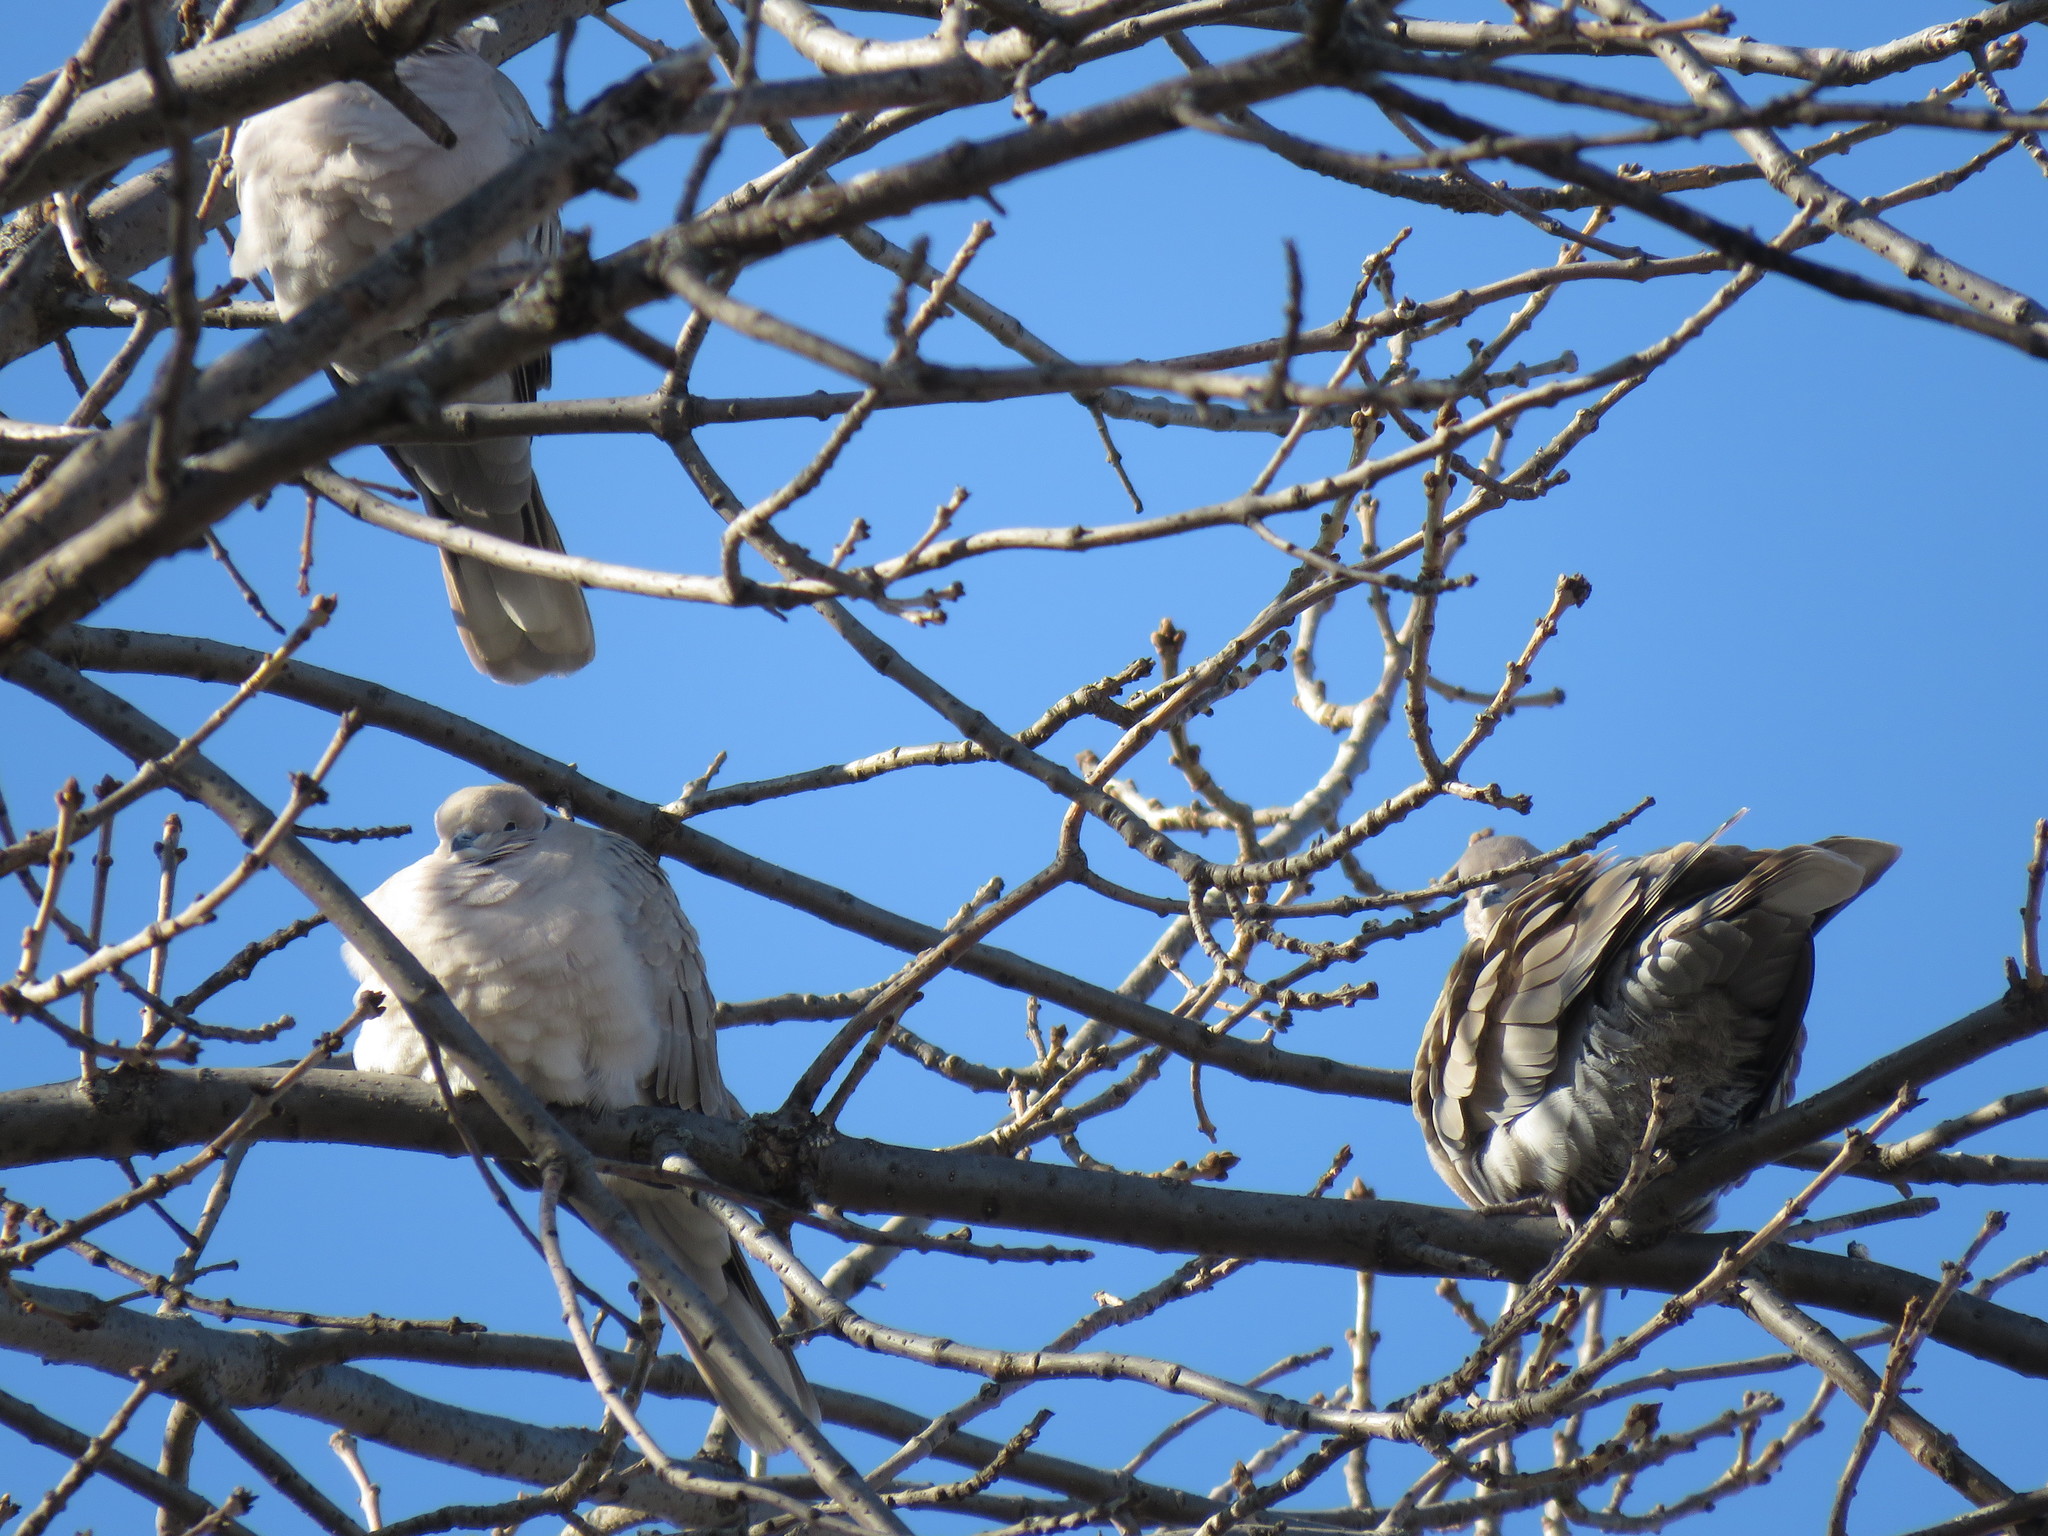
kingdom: Animalia
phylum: Chordata
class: Aves
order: Columbiformes
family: Columbidae
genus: Streptopelia
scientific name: Streptopelia decaocto
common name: Eurasian collared dove
